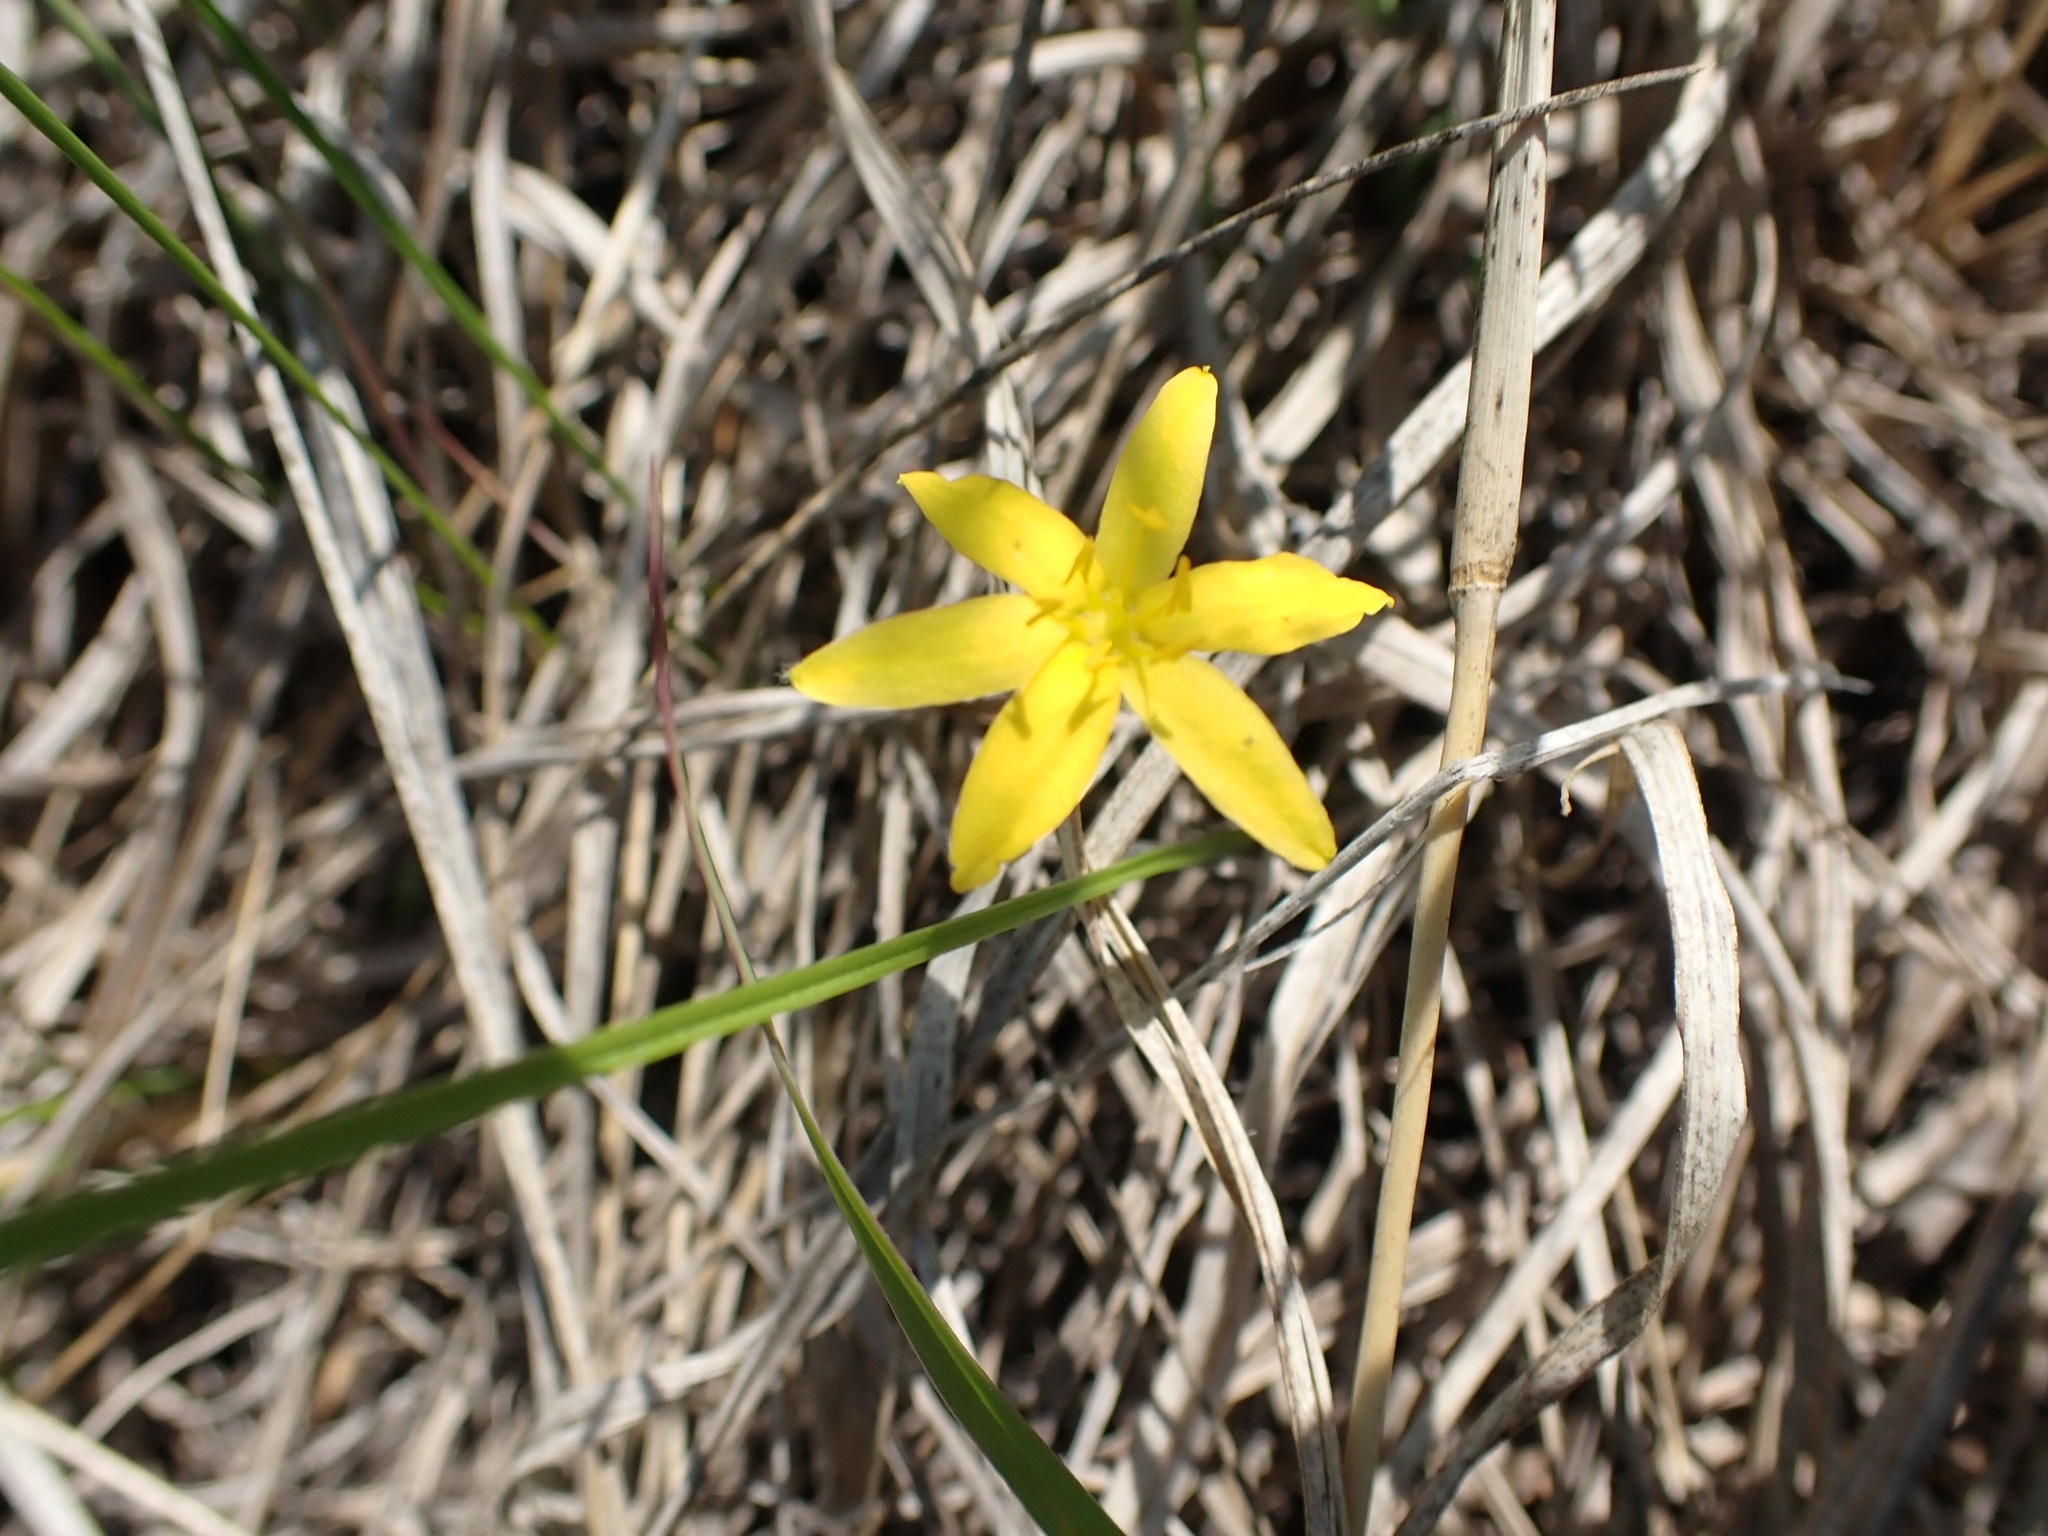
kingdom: Plantae
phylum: Tracheophyta
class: Liliopsida
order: Asparagales
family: Hypoxidaceae
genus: Hypoxis
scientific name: Hypoxis hirsuta
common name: Common goldstar
